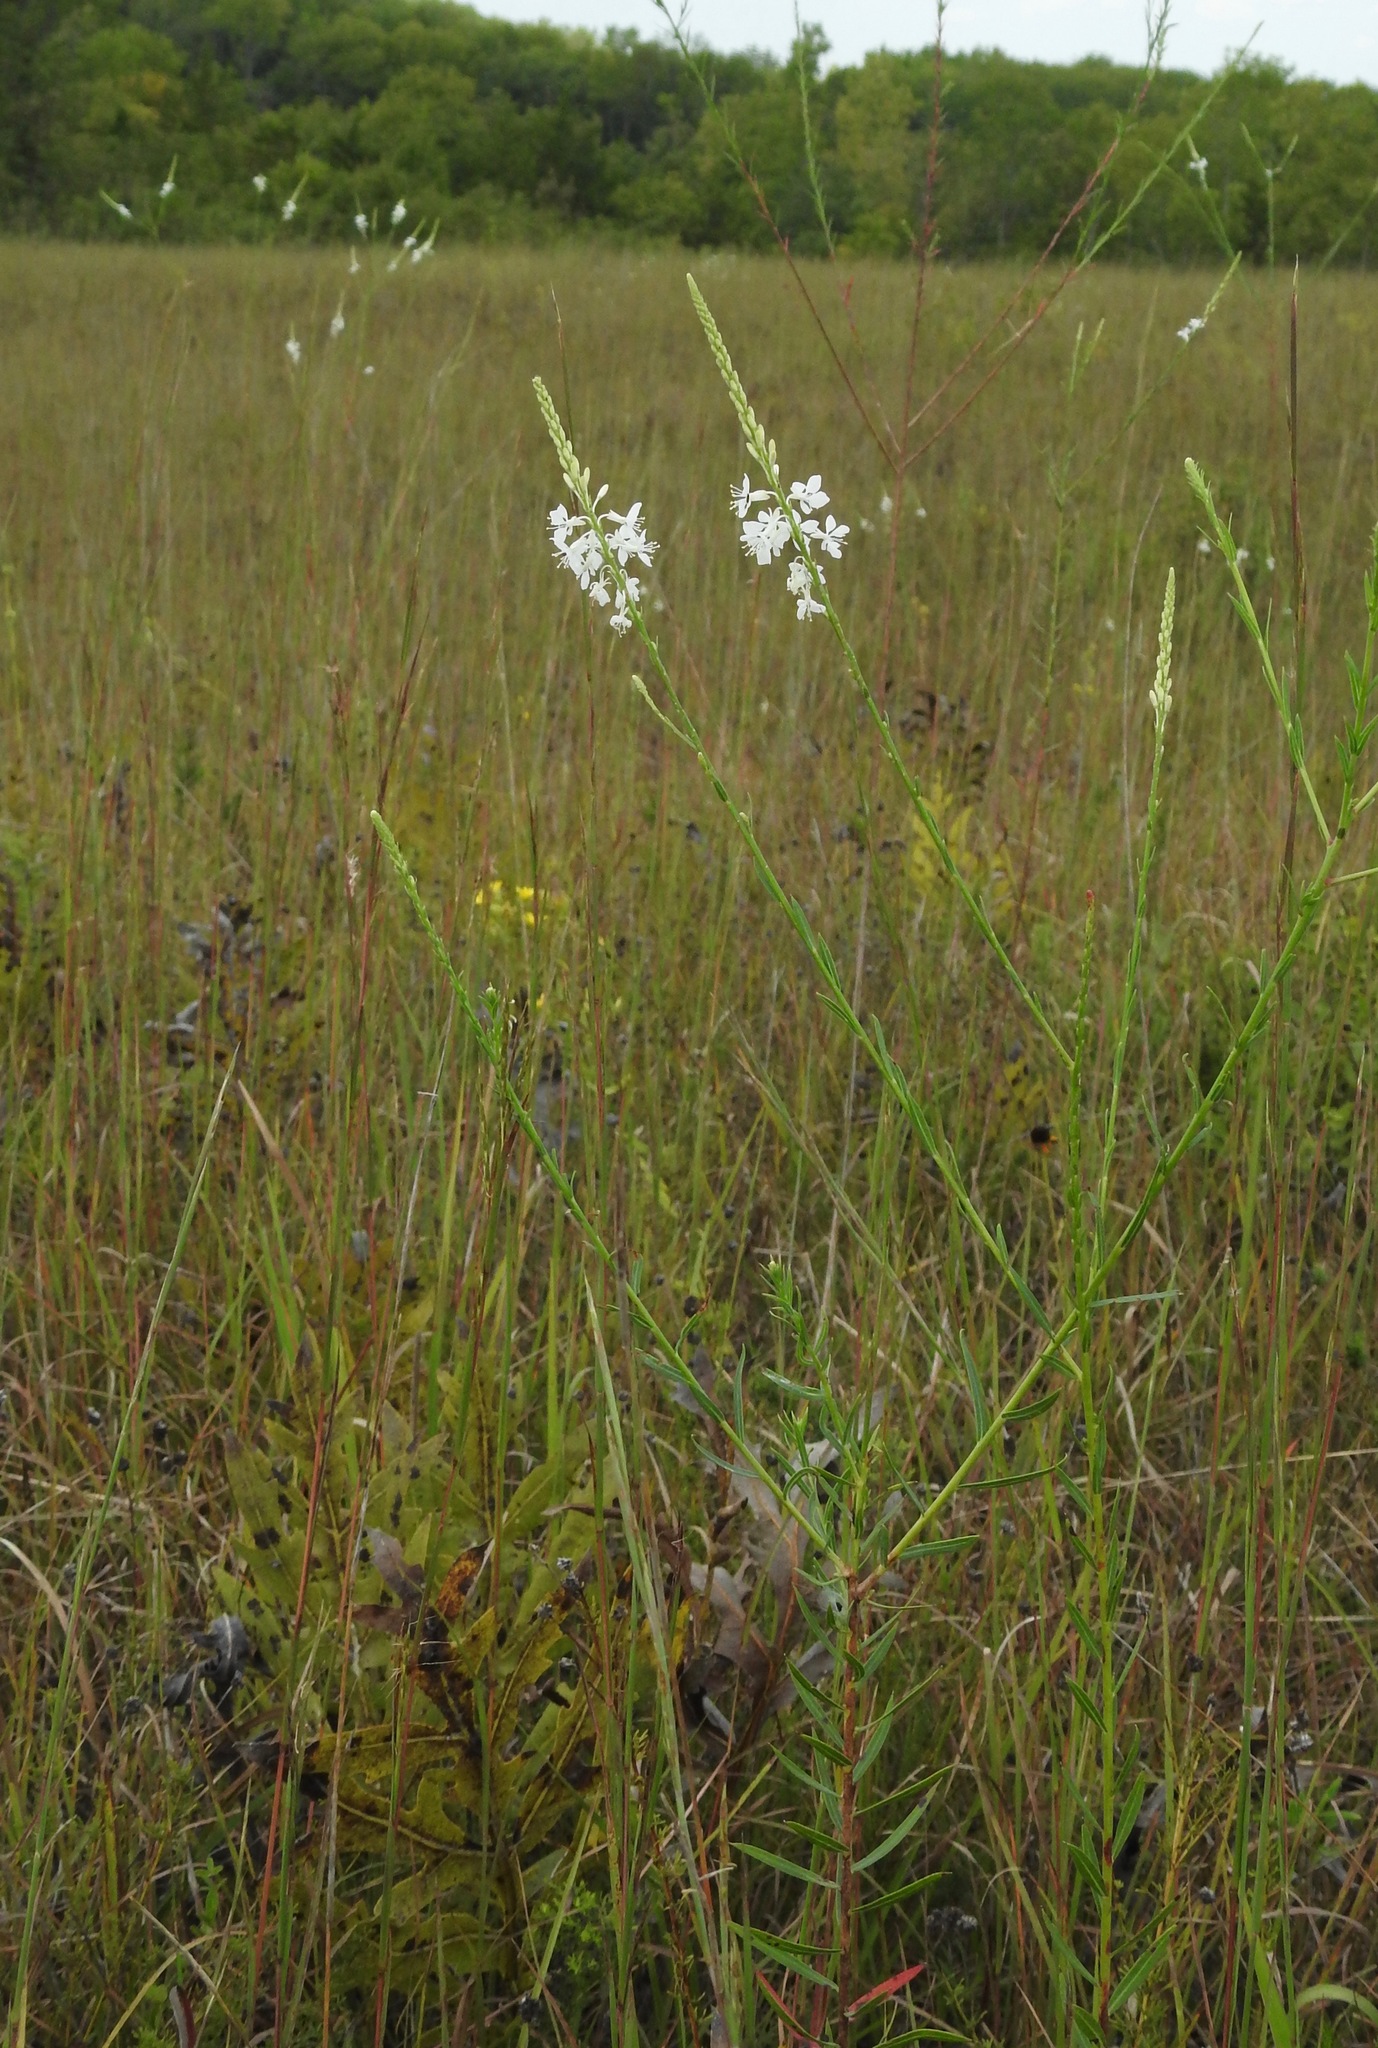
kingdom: Plantae
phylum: Tracheophyta
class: Magnoliopsida
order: Myrtales
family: Onagraceae
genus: Oenothera
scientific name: Oenothera glaucifolia
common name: False gaura
